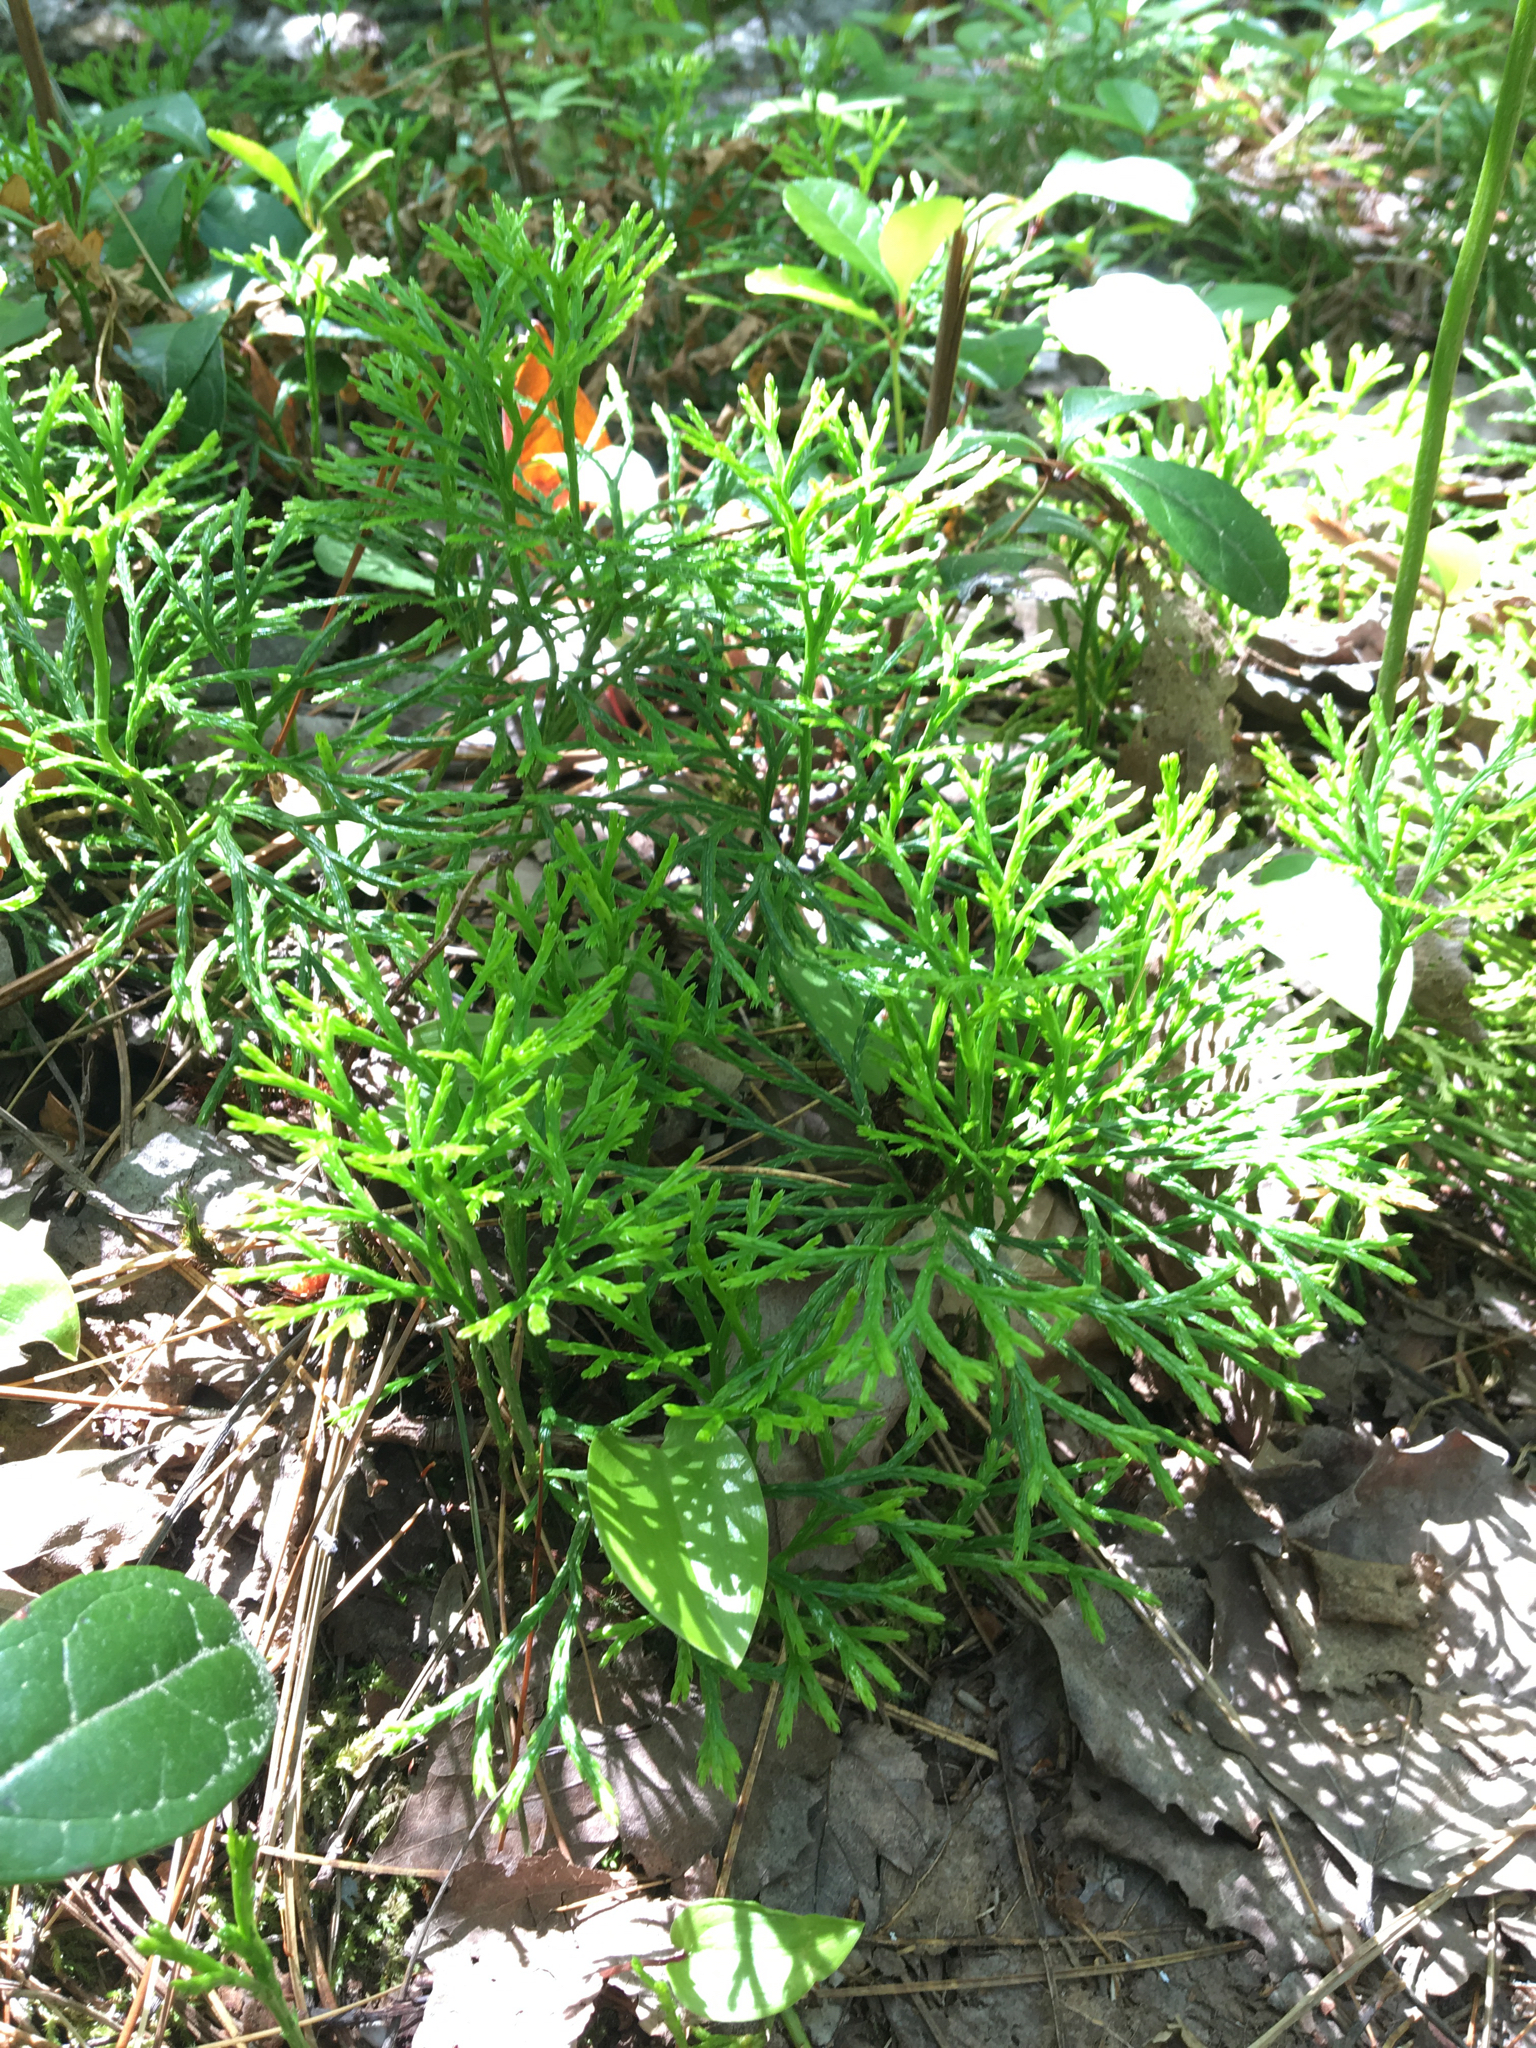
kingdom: Plantae
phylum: Tracheophyta
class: Lycopodiopsida
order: Lycopodiales
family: Lycopodiaceae
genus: Diphasiastrum
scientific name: Diphasiastrum digitatum
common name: Southern running-pine
